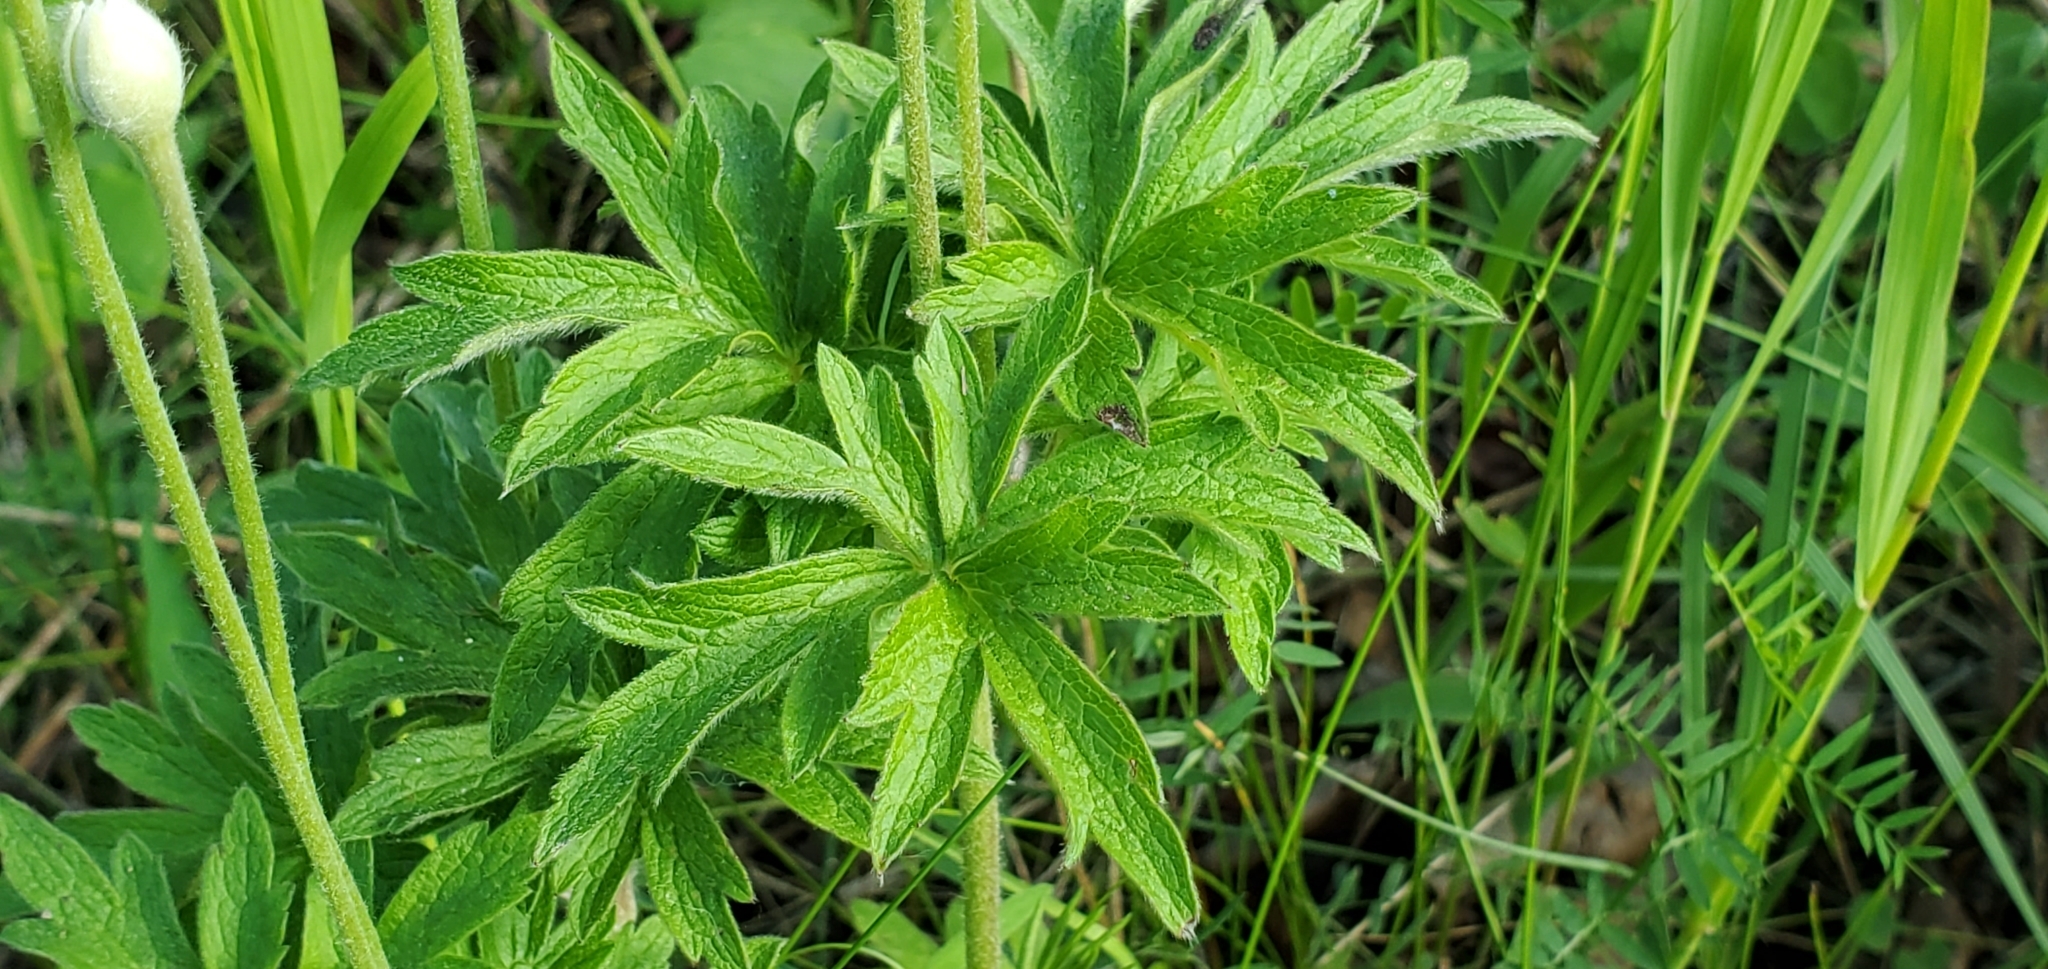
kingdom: Plantae
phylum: Tracheophyta
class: Magnoliopsida
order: Ranunculales
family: Ranunculaceae
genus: Anemone
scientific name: Anemone cylindrica
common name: Candle anemone
